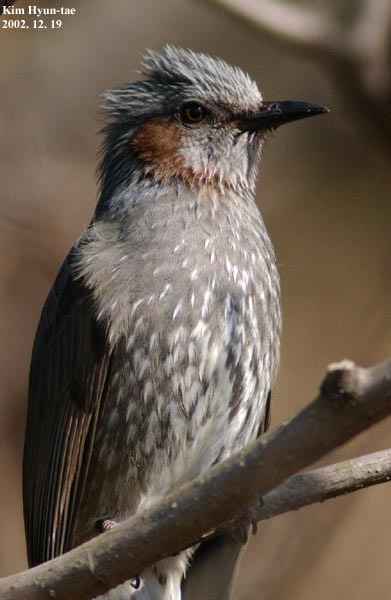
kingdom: Animalia
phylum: Chordata
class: Aves
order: Passeriformes
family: Pycnonotidae
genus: Hypsipetes
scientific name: Hypsipetes amaurotis
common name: Brown-eared bulbul
